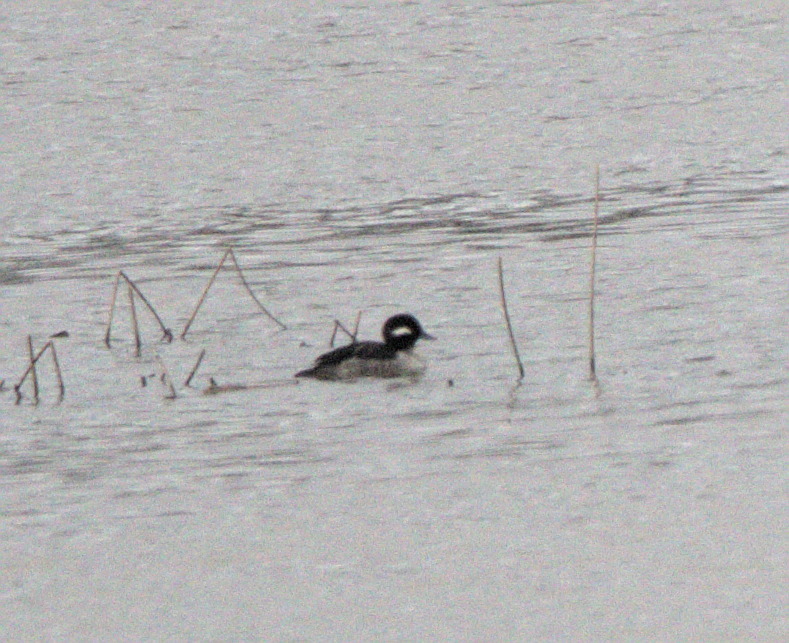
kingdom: Animalia
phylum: Chordata
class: Aves
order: Anseriformes
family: Anatidae
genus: Bucephala
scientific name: Bucephala albeola
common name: Bufflehead
